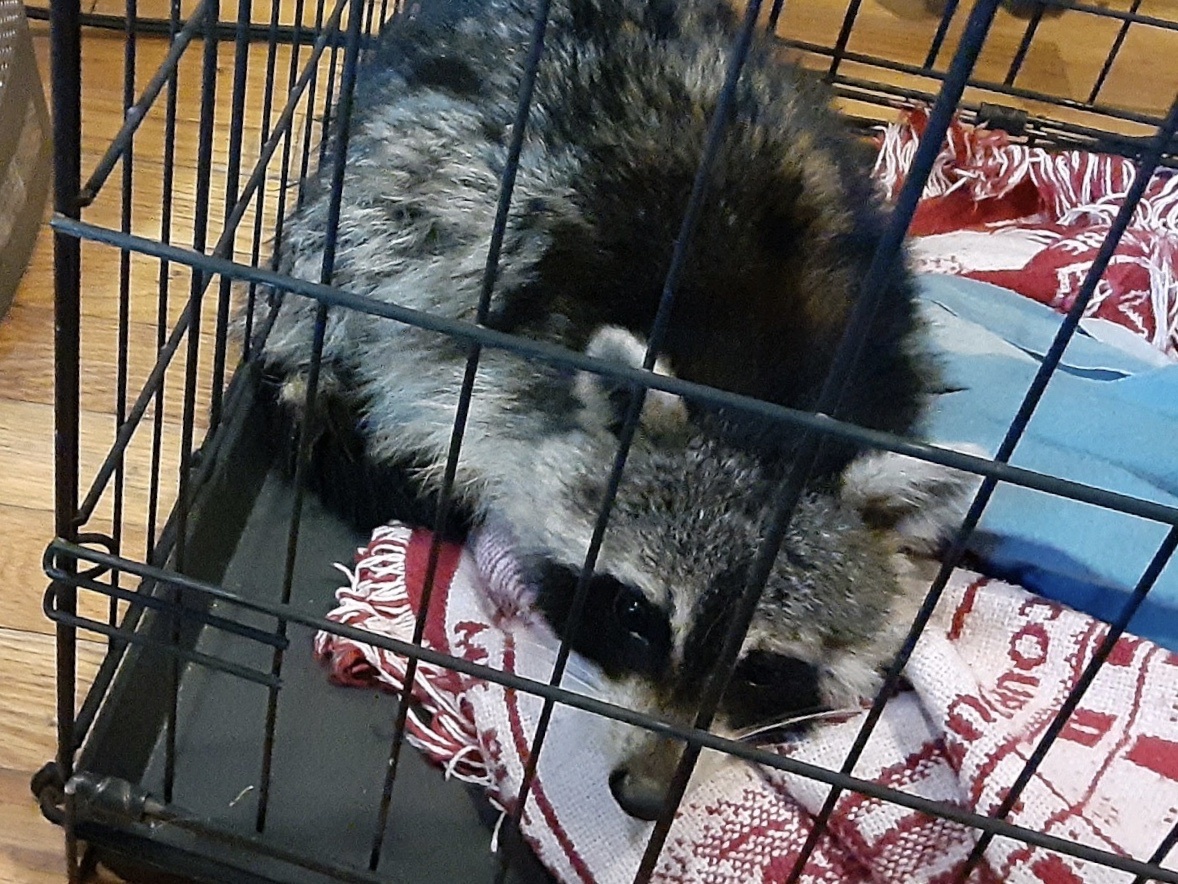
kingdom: Animalia
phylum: Chordata
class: Mammalia
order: Carnivora
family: Procyonidae
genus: Procyon
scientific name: Procyon lotor
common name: Raccoon
